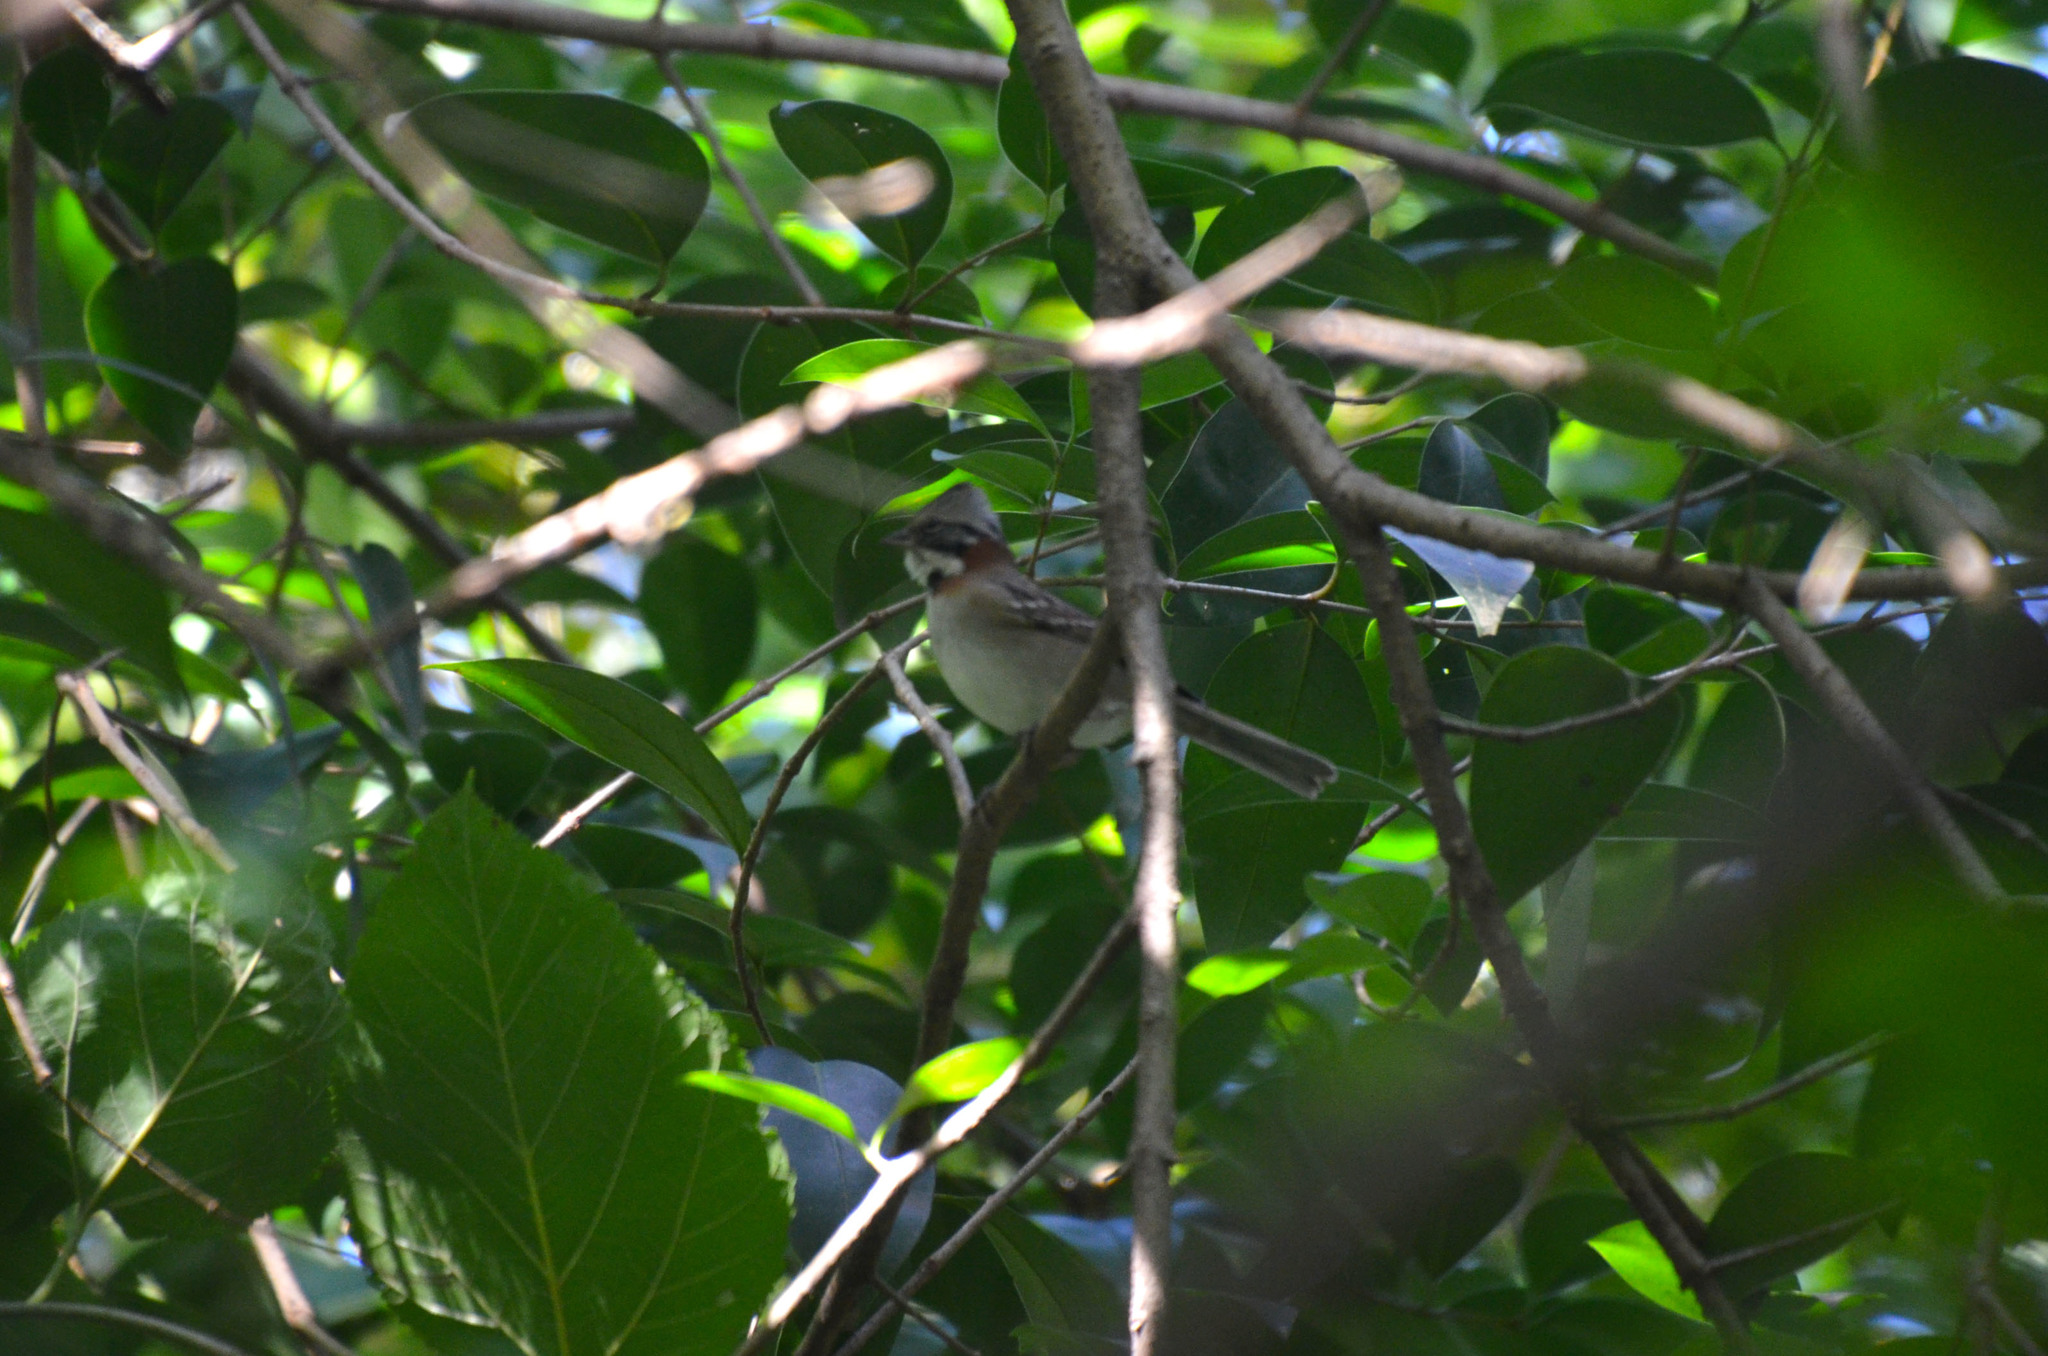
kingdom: Animalia
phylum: Chordata
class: Aves
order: Passeriformes
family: Passerellidae
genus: Zonotrichia
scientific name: Zonotrichia capensis
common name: Rufous-collared sparrow
